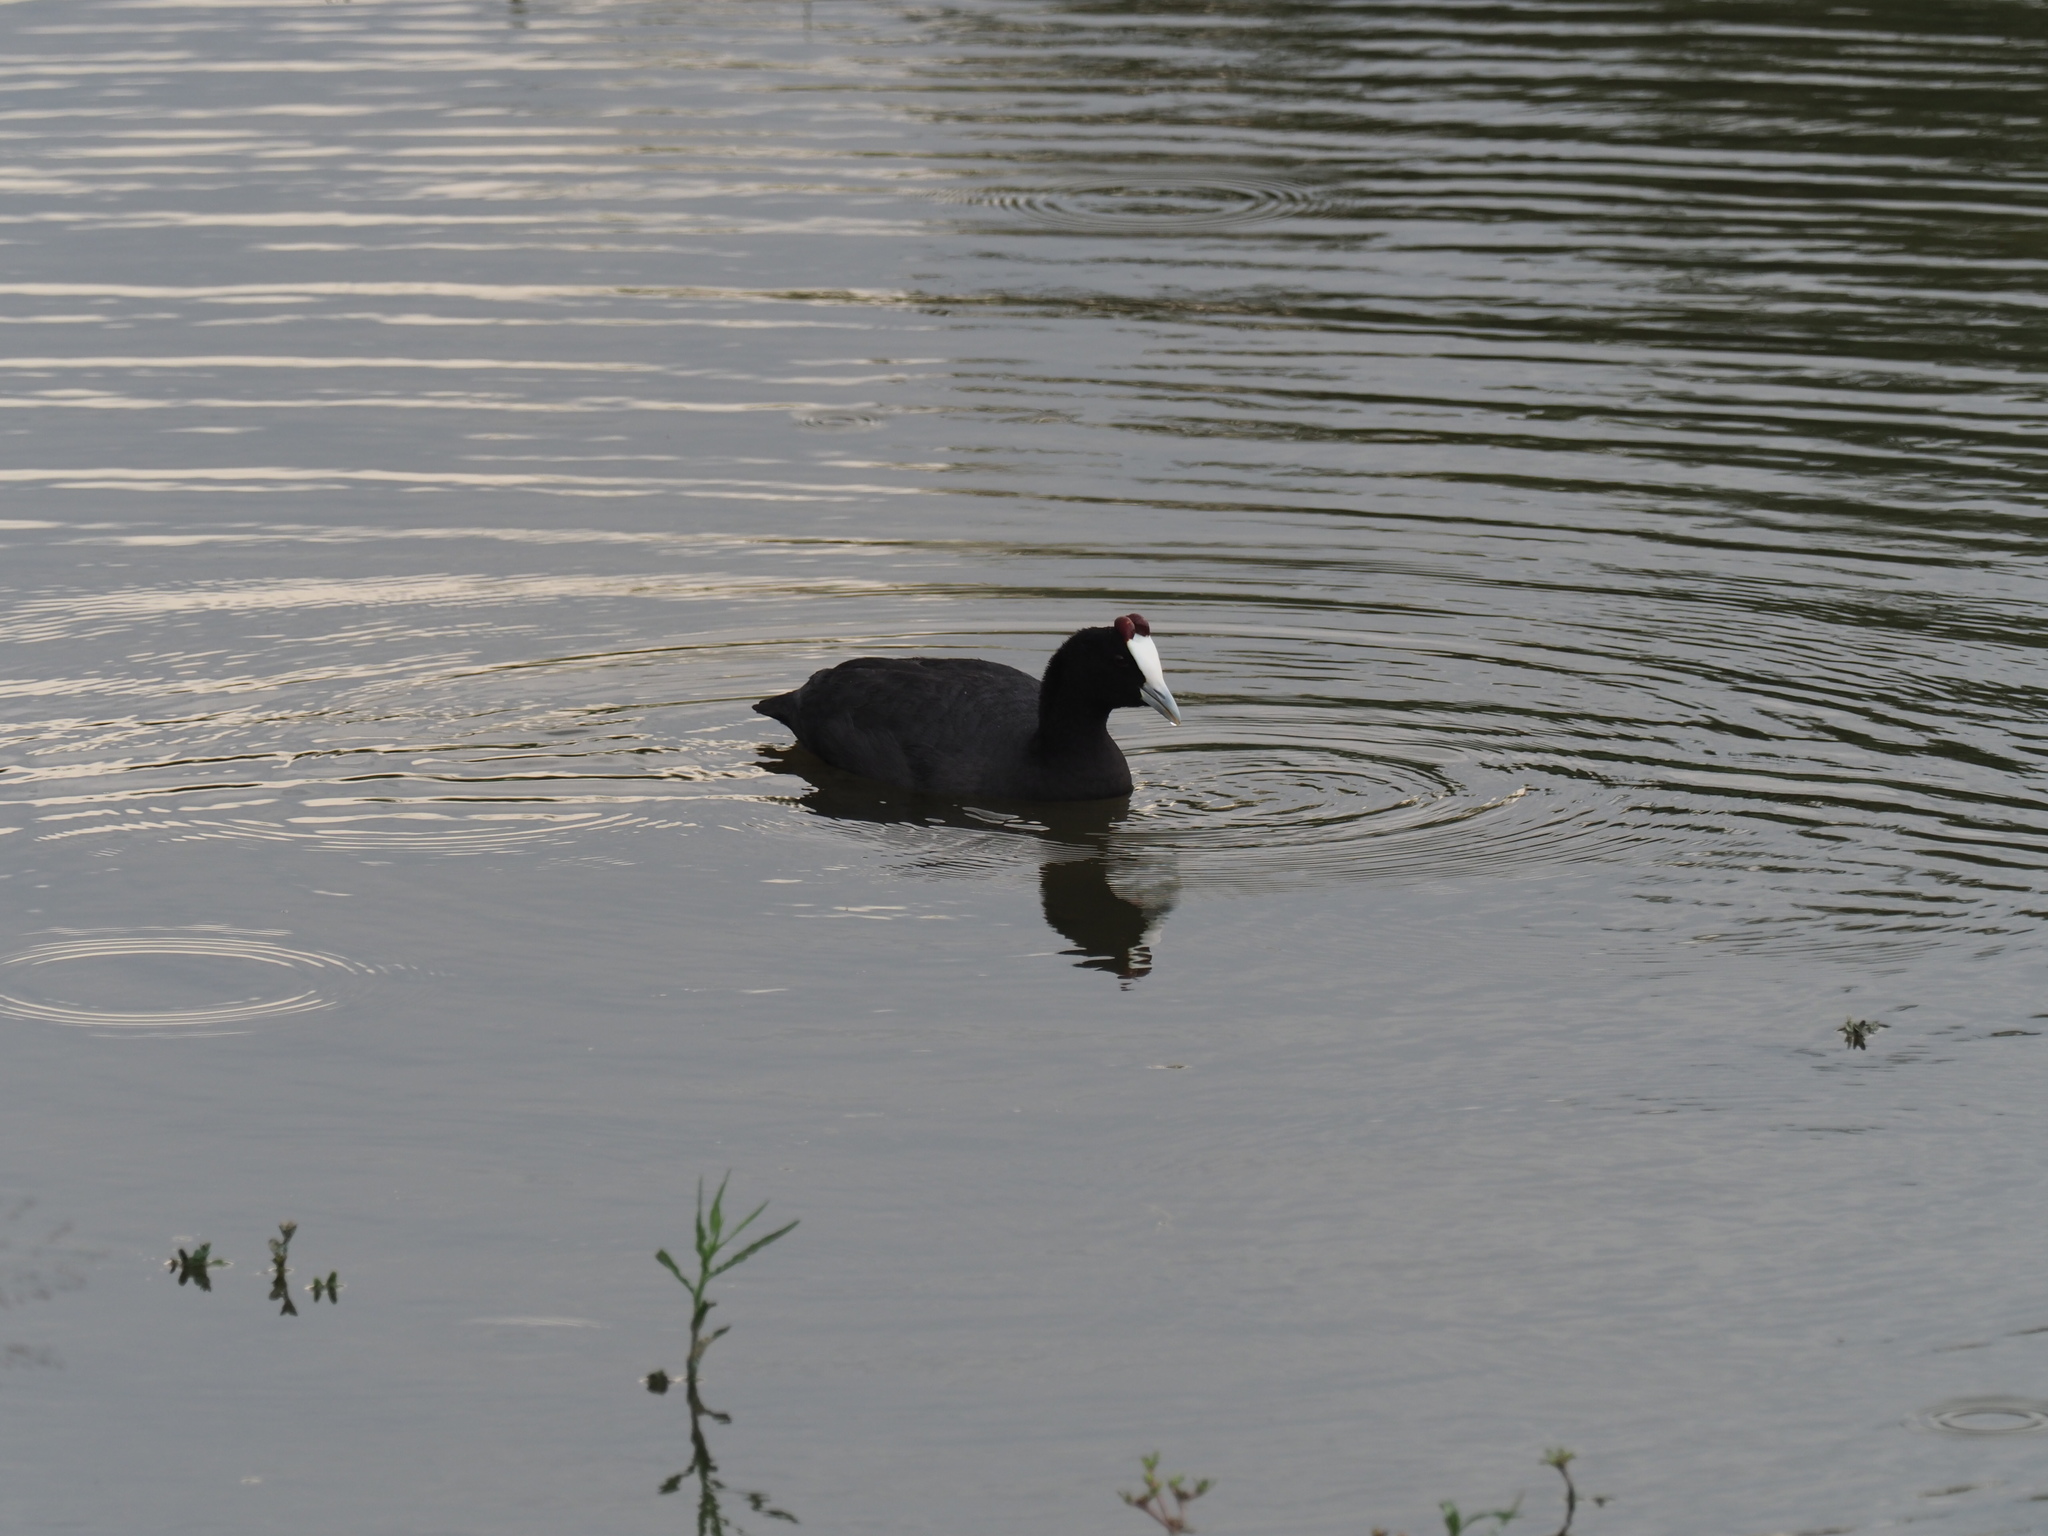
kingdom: Animalia
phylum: Chordata
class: Aves
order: Gruiformes
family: Rallidae
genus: Fulica
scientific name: Fulica cristata
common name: Red-knobbed coot
